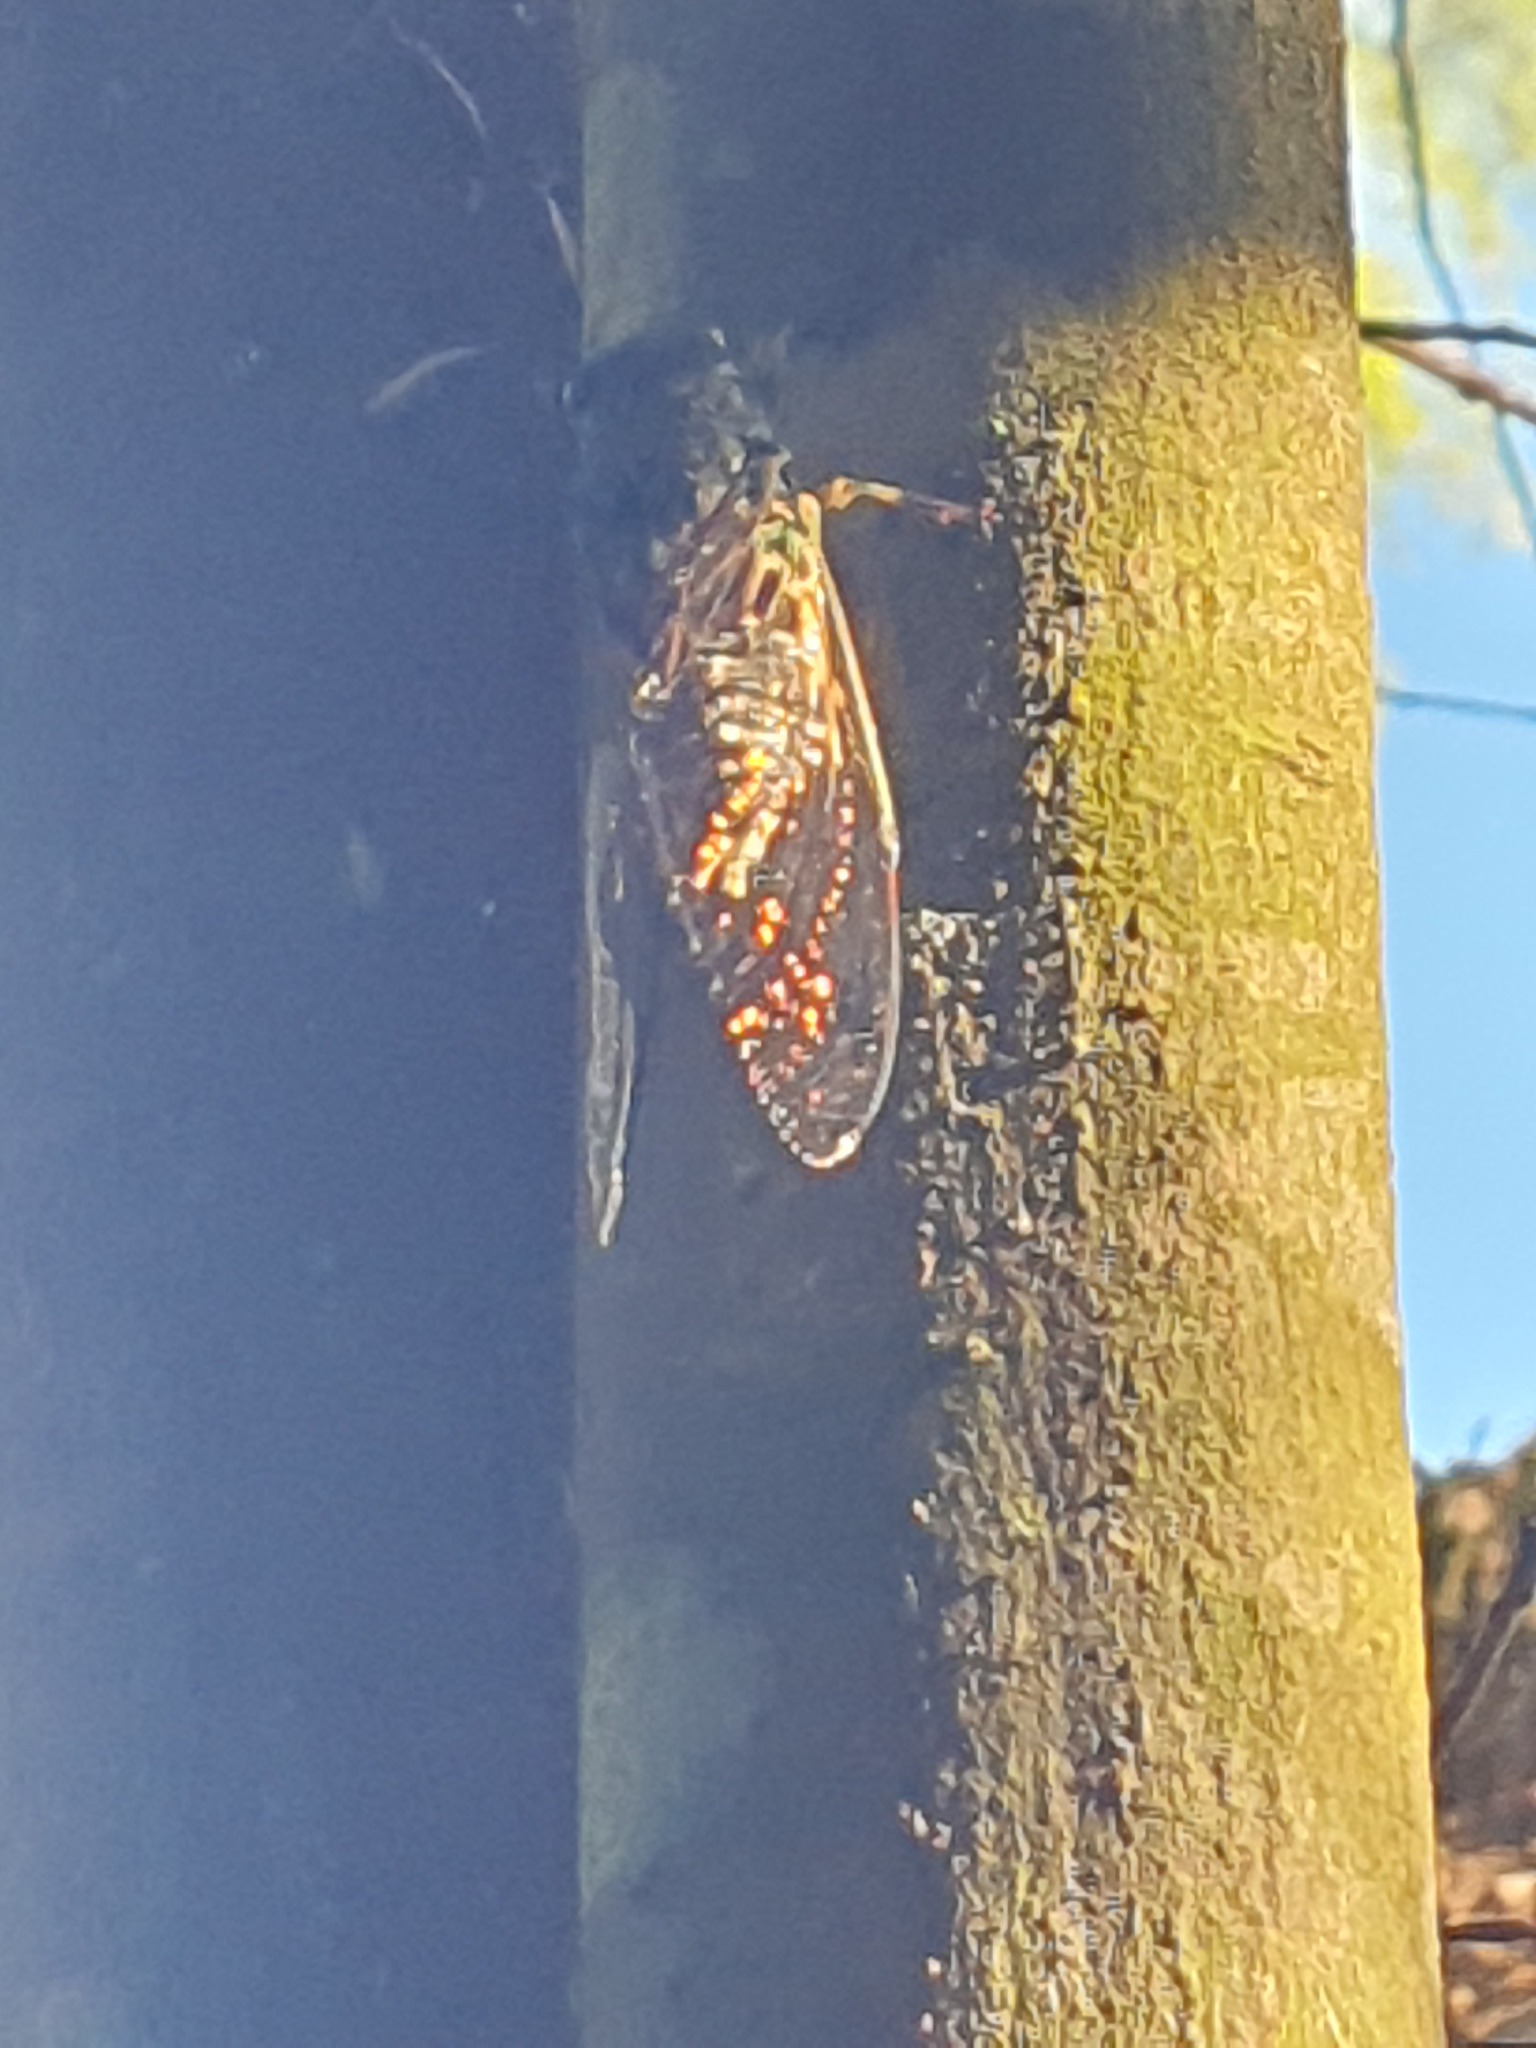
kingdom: Animalia
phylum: Arthropoda
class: Insecta
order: Hemiptera
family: Cicadidae
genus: Amphipsalta
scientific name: Amphipsalta zelandica
